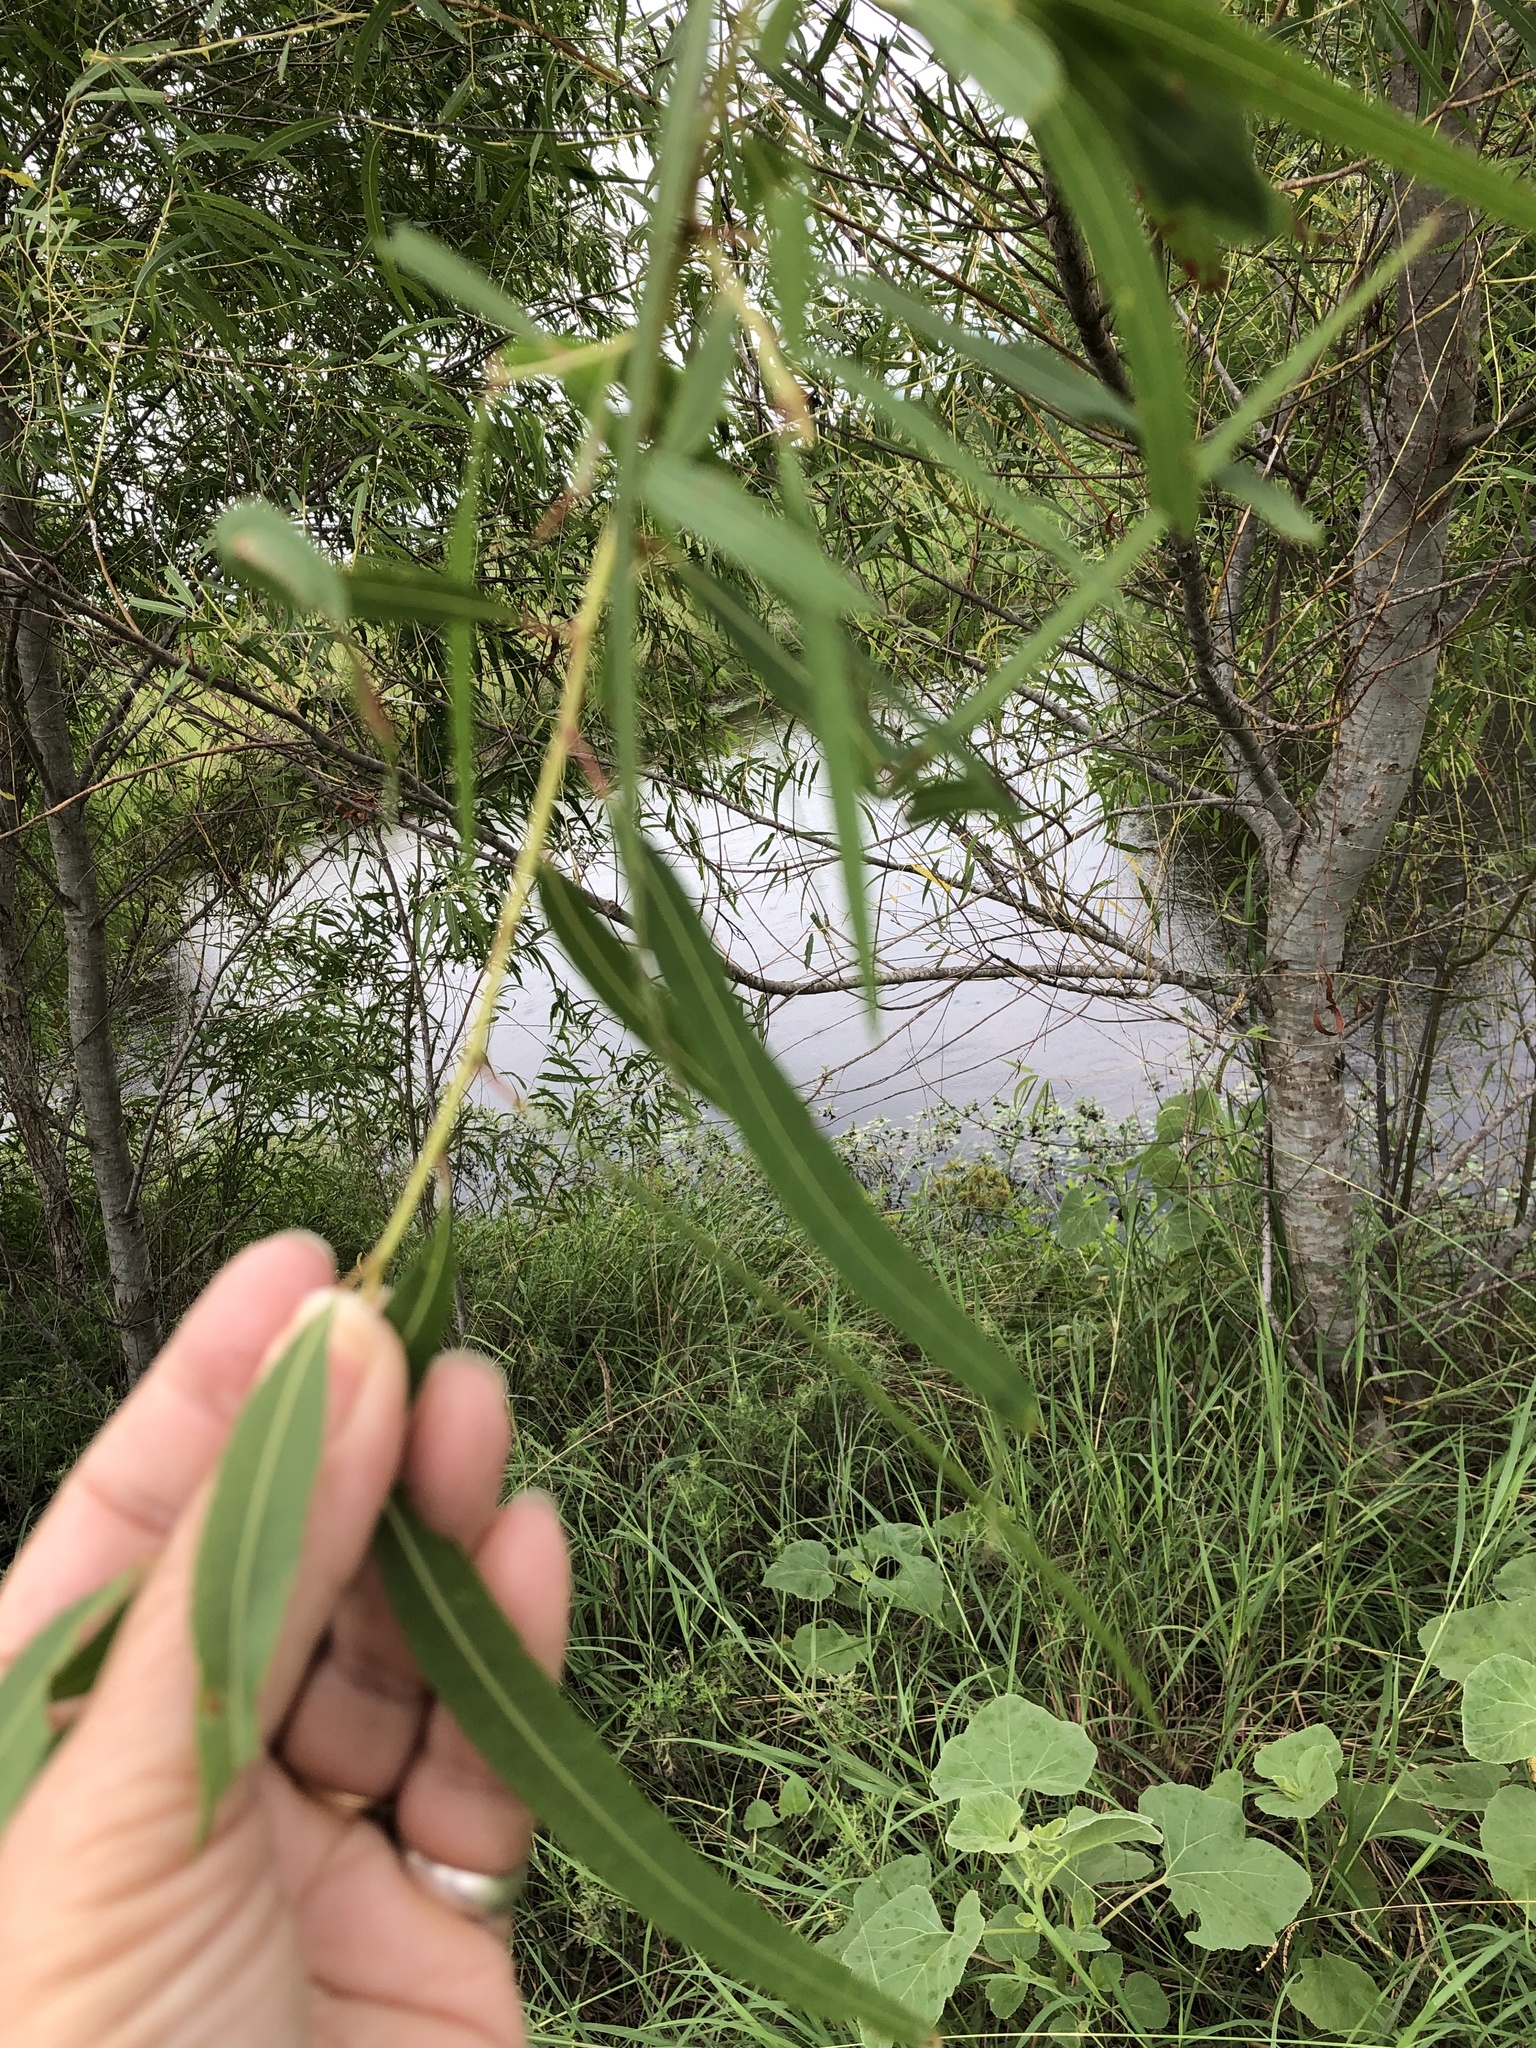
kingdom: Plantae
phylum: Tracheophyta
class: Magnoliopsida
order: Malpighiales
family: Salicaceae
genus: Salix
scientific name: Salix nigra
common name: Black willow
